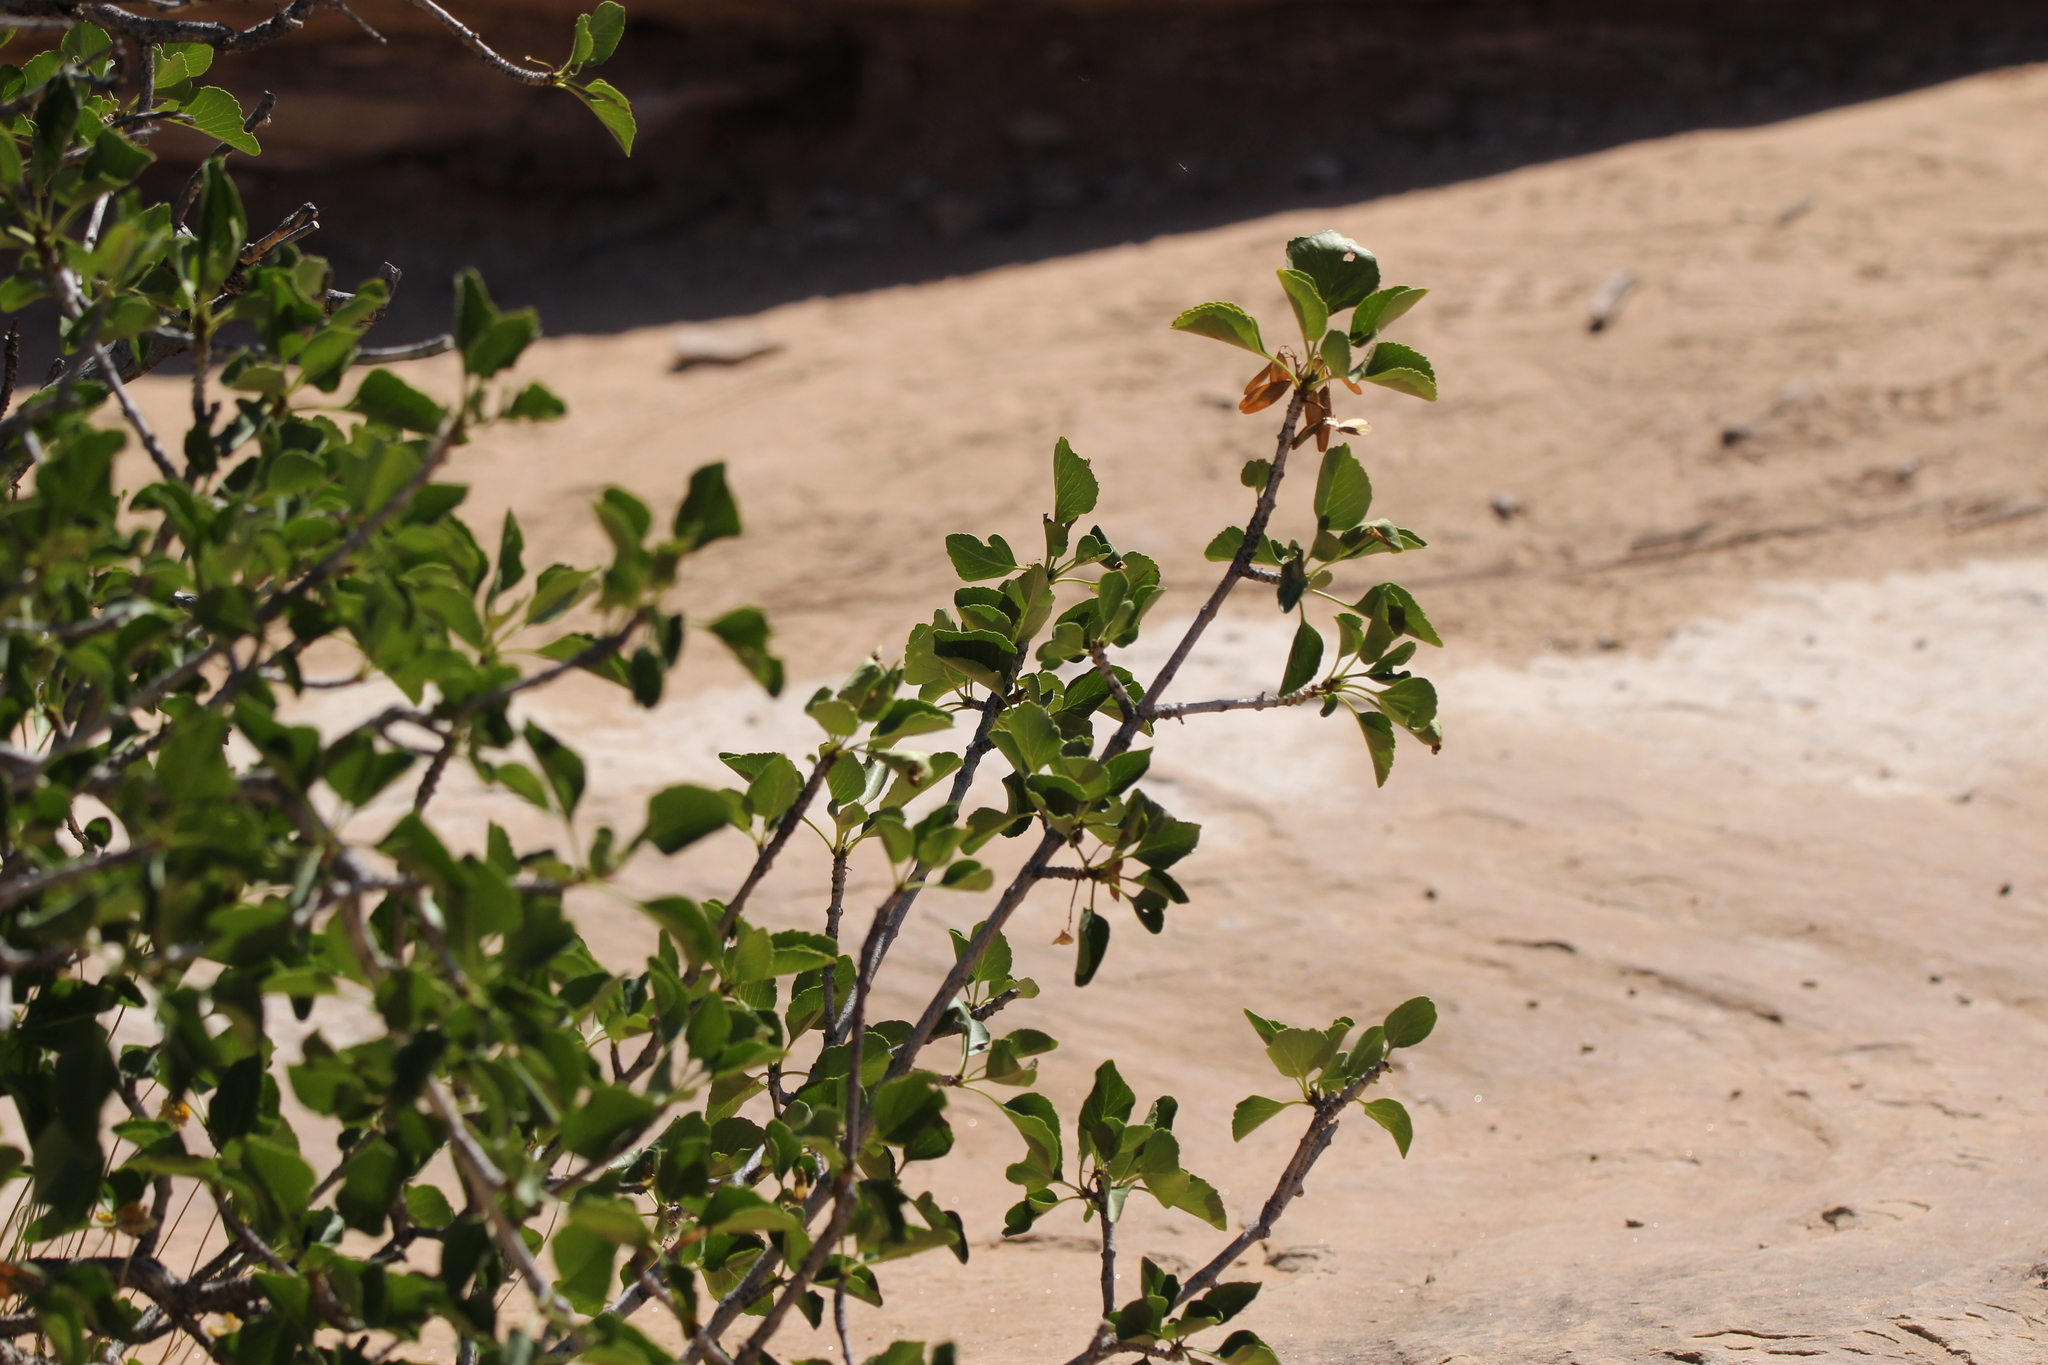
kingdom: Plantae
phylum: Tracheophyta
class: Magnoliopsida
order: Lamiales
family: Oleaceae
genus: Fraxinus
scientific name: Fraxinus anomala
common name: Utah ash
